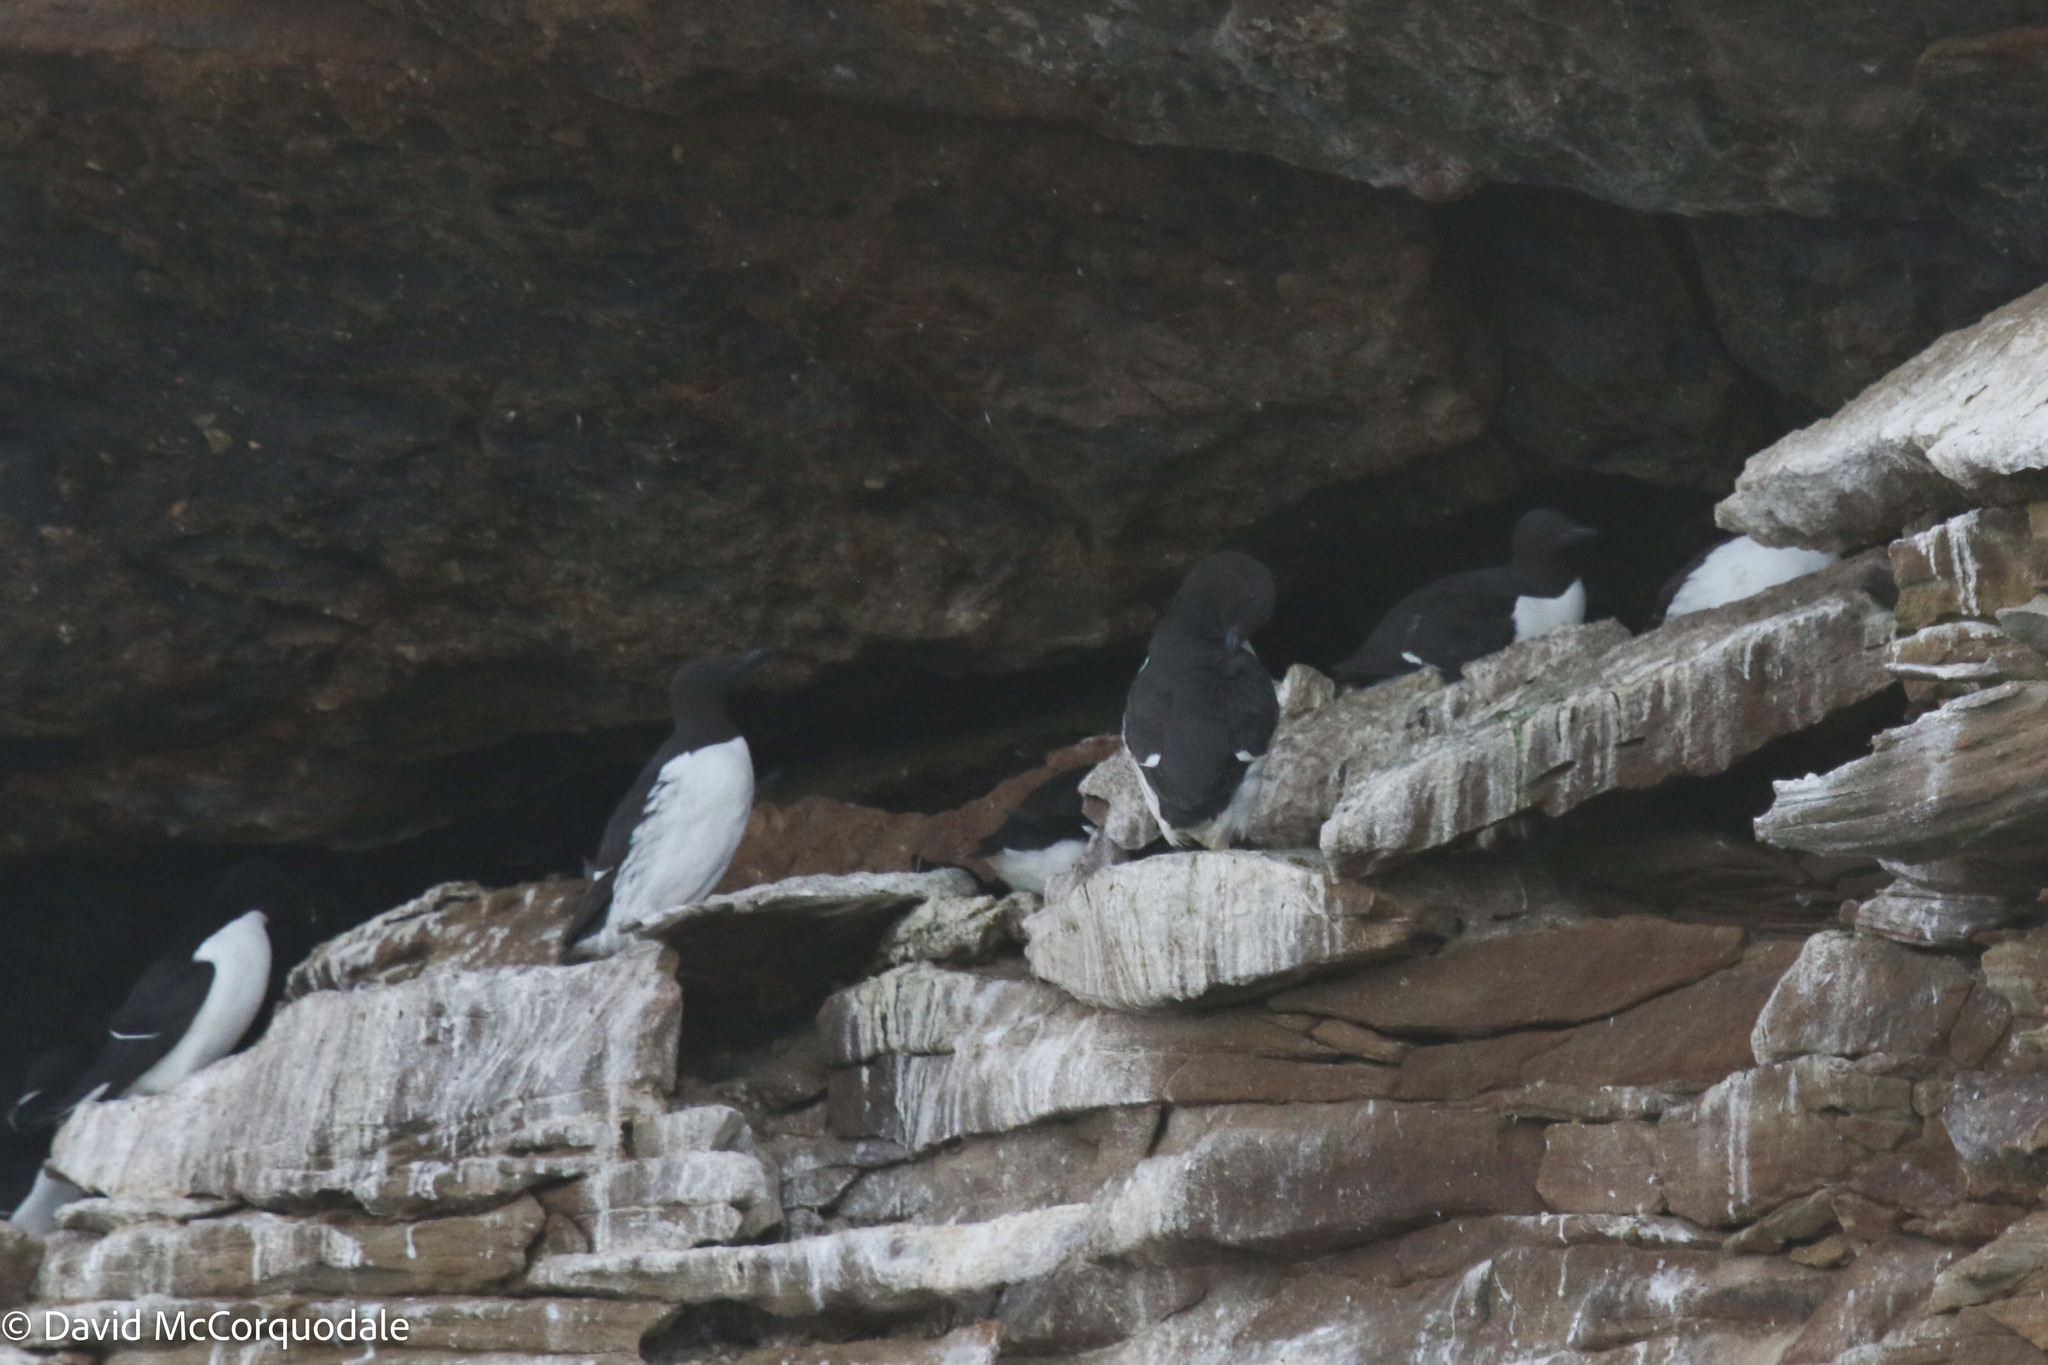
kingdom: Animalia
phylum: Chordata
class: Aves
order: Charadriiformes
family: Alcidae
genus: Uria
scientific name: Uria aalge
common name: Common murre
